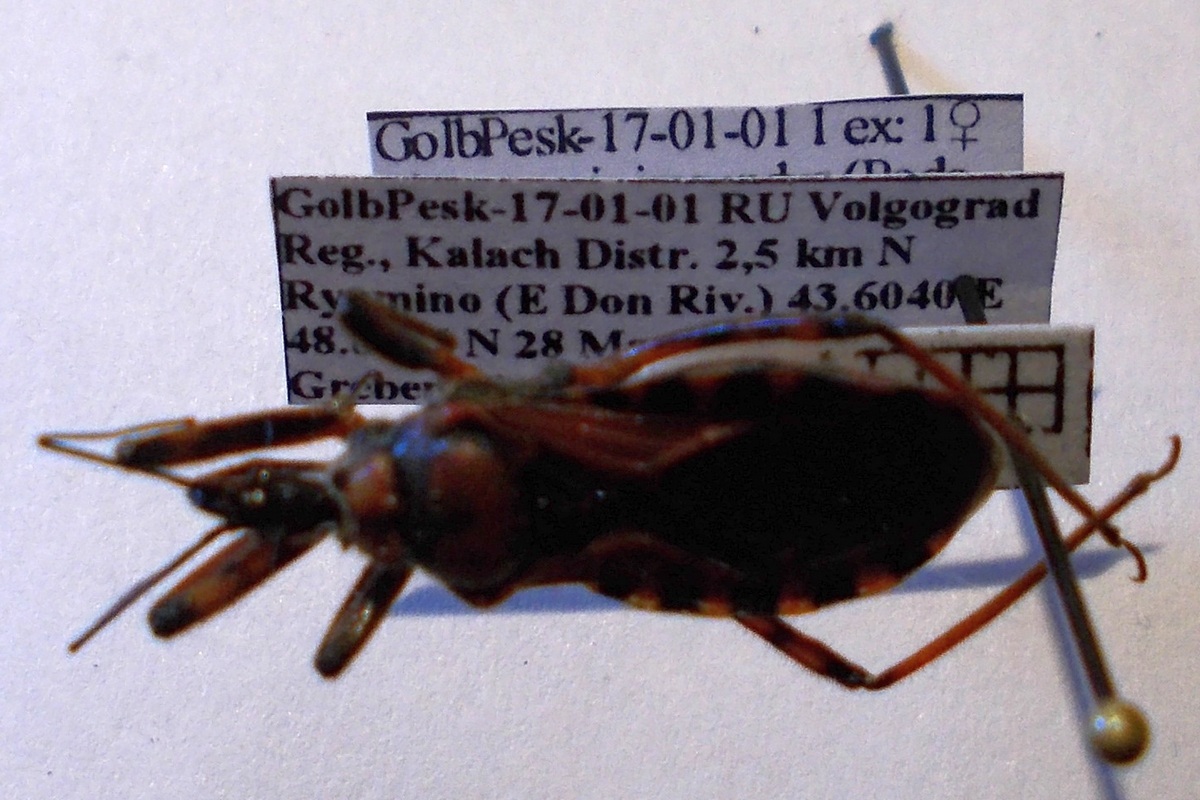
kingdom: Animalia
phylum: Arthropoda
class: Insecta
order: Hemiptera
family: Reduviidae
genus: Rhynocoris
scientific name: Rhynocoris iracundus
